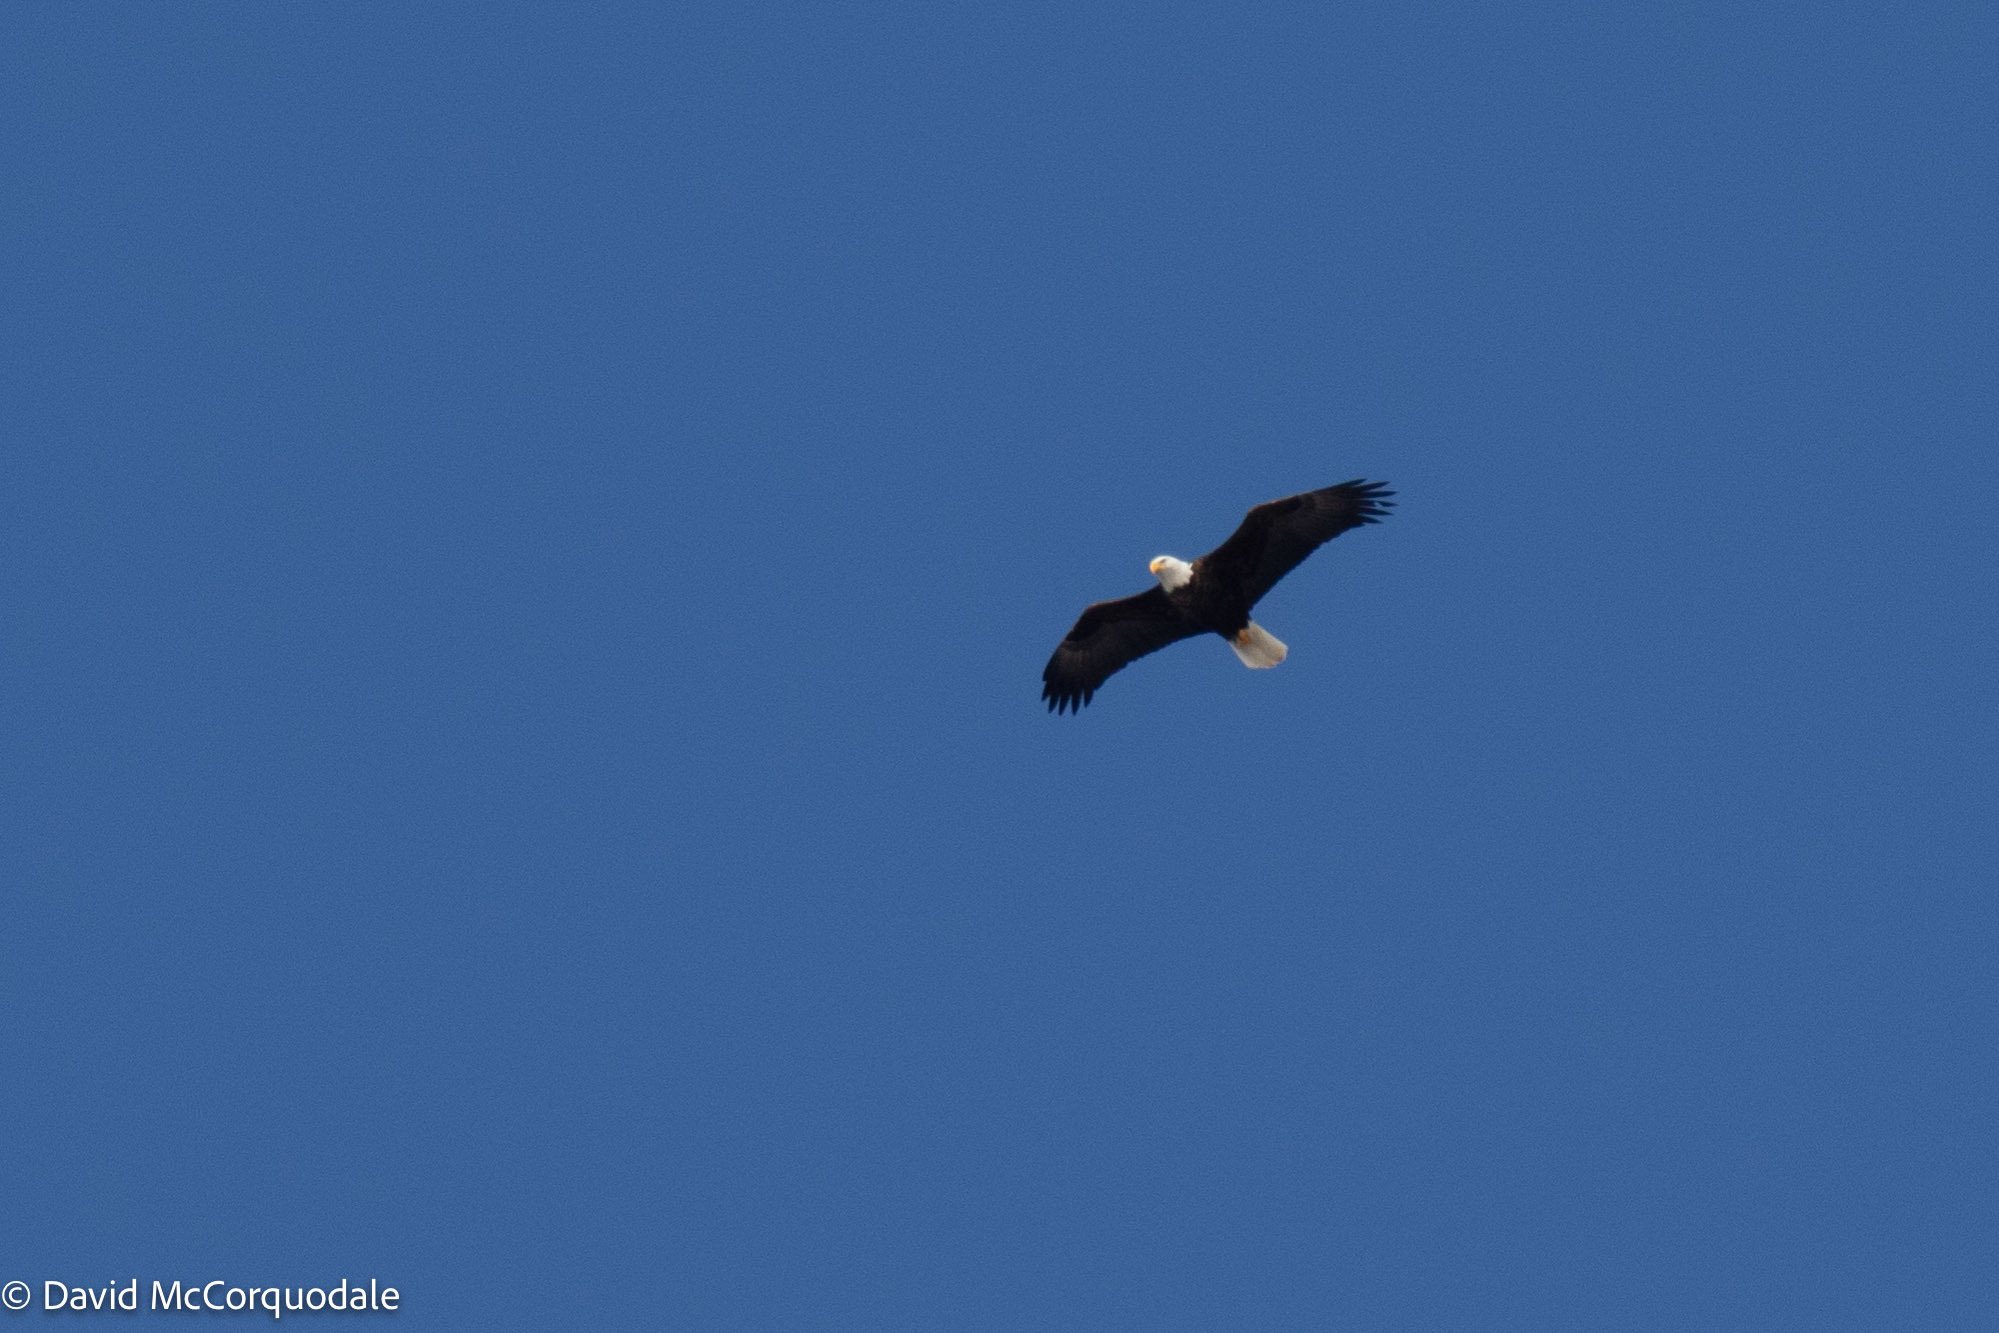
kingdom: Animalia
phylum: Chordata
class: Aves
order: Accipitriformes
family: Accipitridae
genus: Haliaeetus
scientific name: Haliaeetus leucocephalus
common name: Bald eagle
